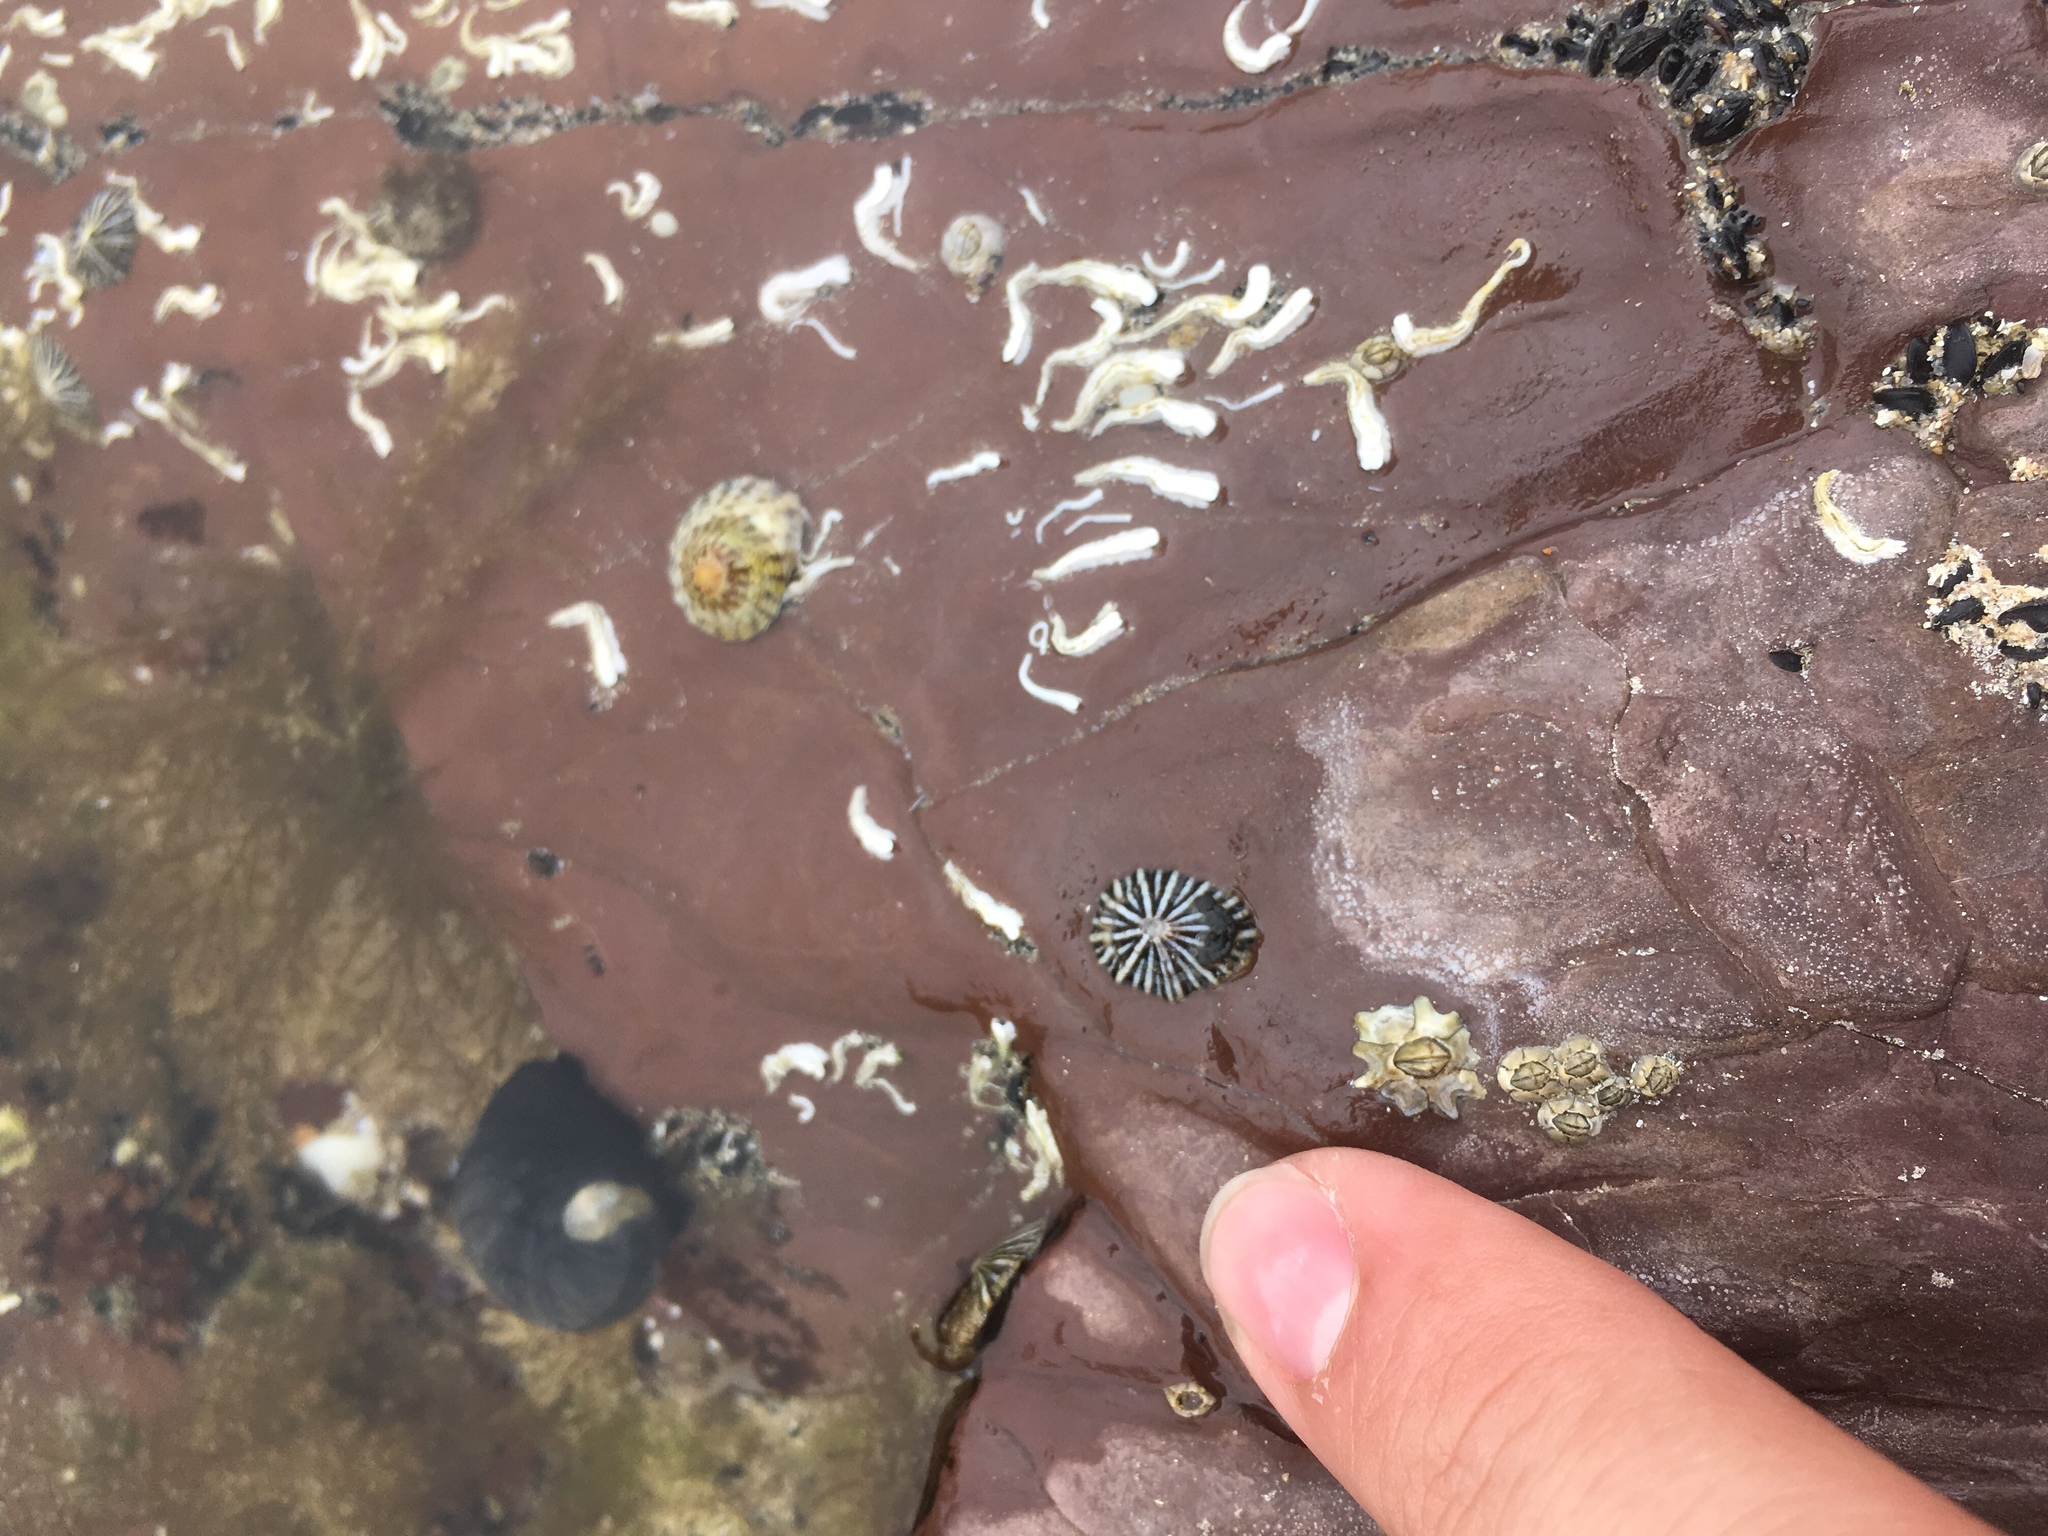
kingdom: Animalia
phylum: Mollusca
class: Gastropoda
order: Siphonariida
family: Siphonariidae
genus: Siphonaria
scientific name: Siphonaria diemenensis
